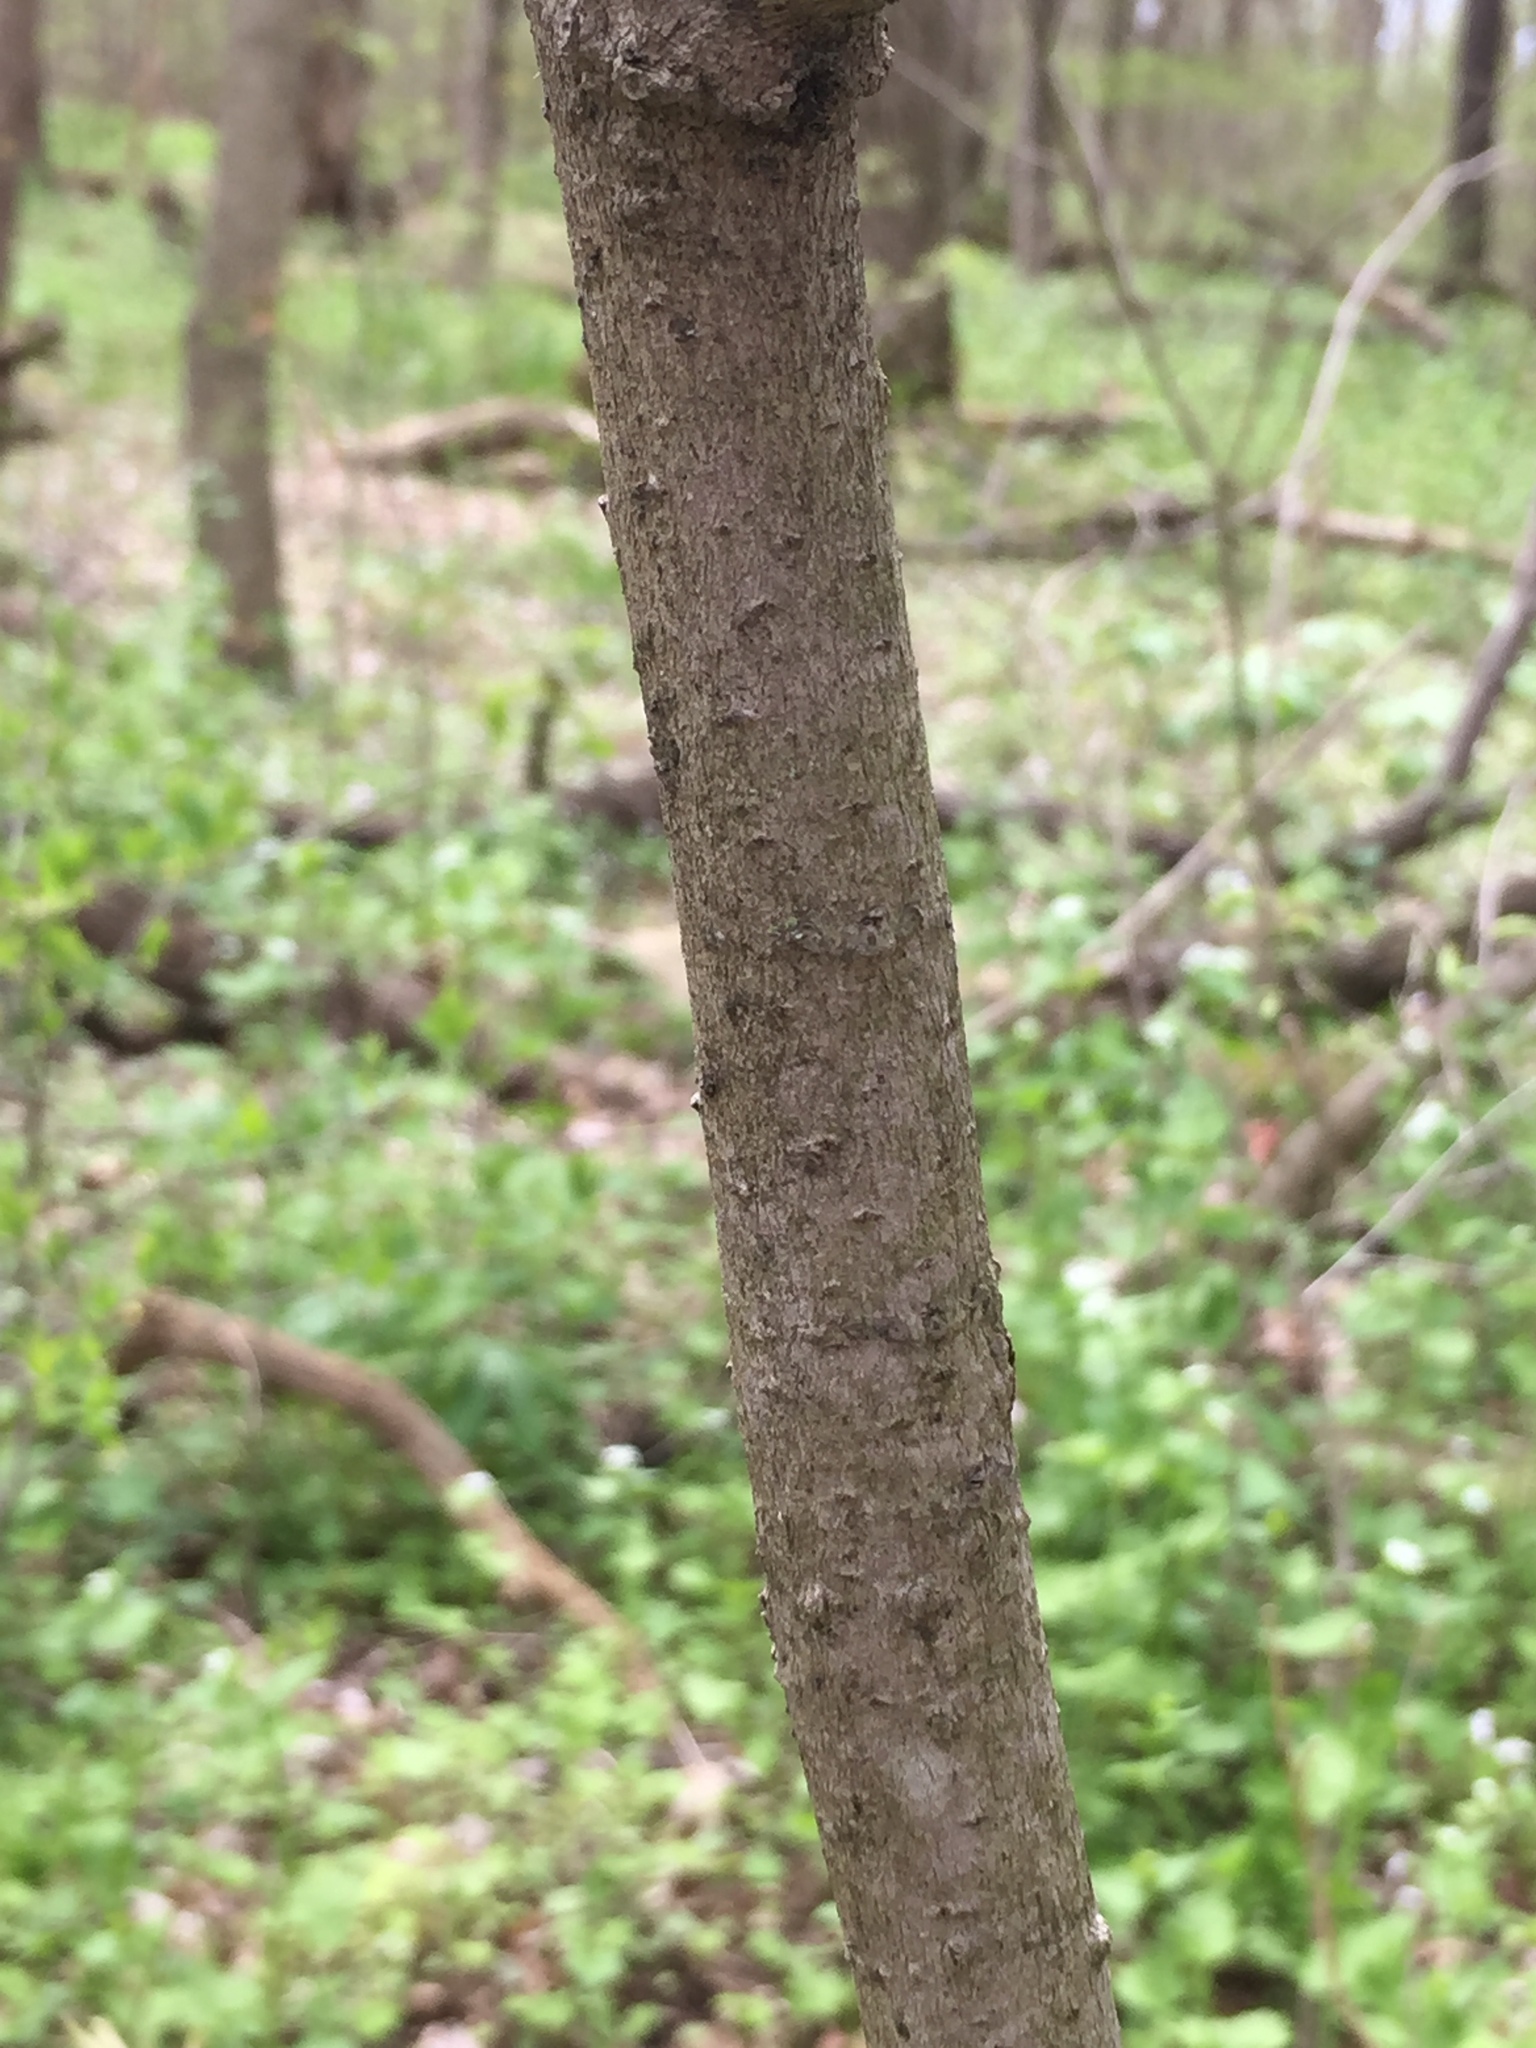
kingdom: Plantae
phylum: Tracheophyta
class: Magnoliopsida
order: Magnoliales
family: Annonaceae
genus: Asimina
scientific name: Asimina triloba
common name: Dog-banana
